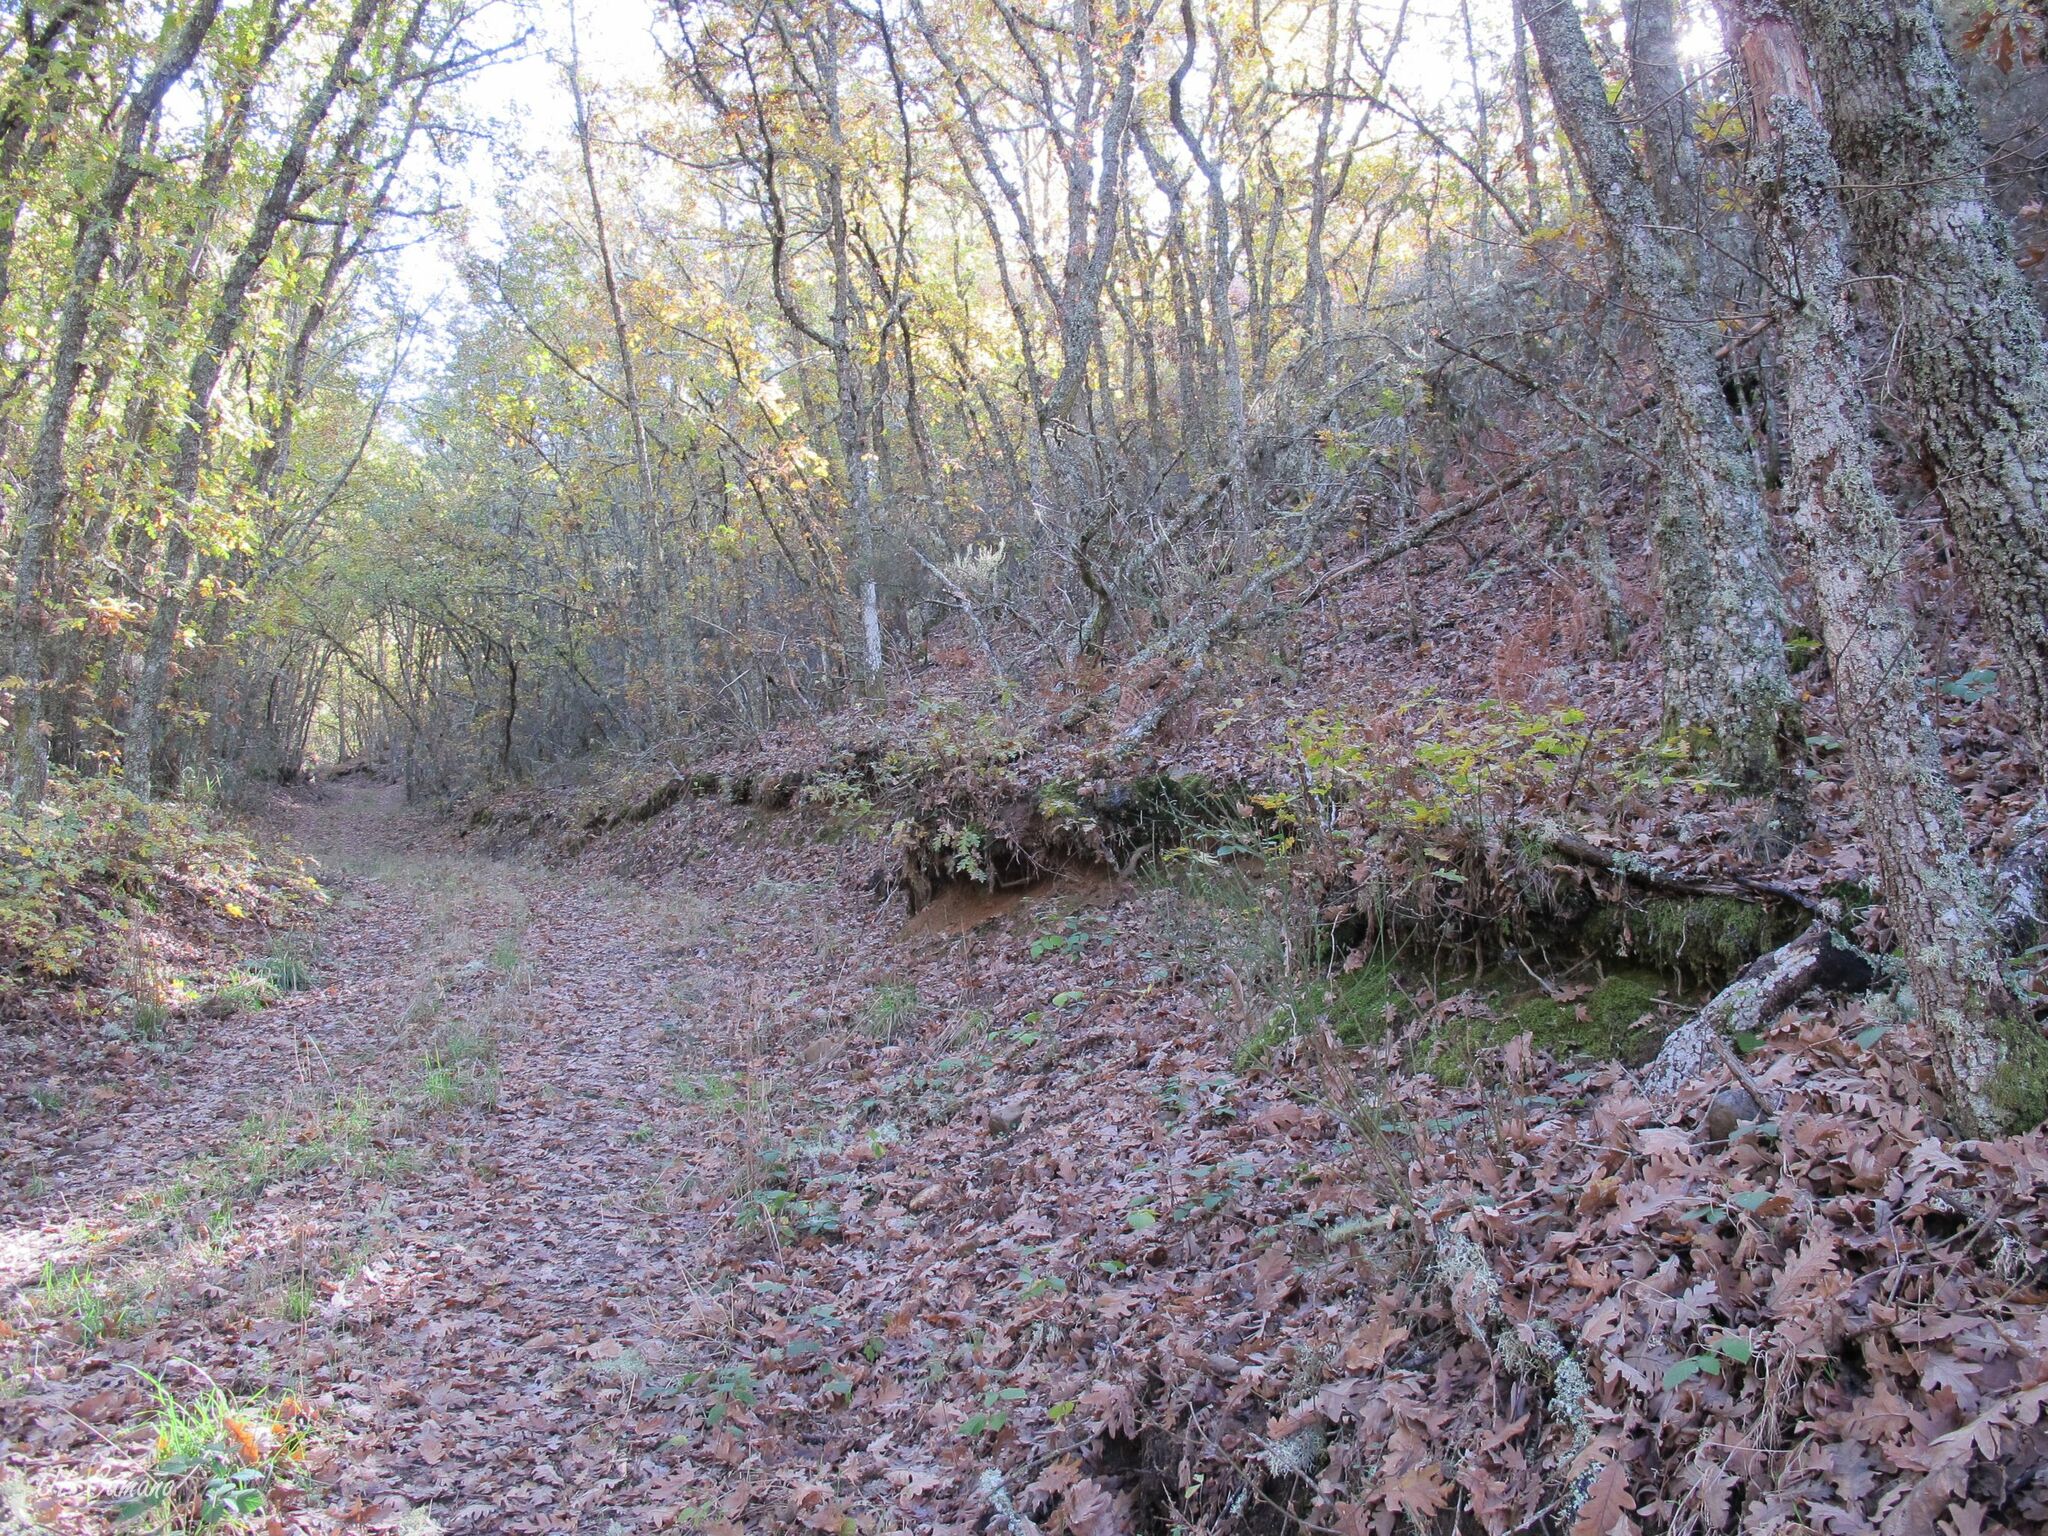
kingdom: Plantae
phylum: Bryophyta
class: Polytrichopsida
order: Polytrichales
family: Polytrichaceae
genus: Pogonatum
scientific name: Pogonatum aloides
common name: Aloe haircap
